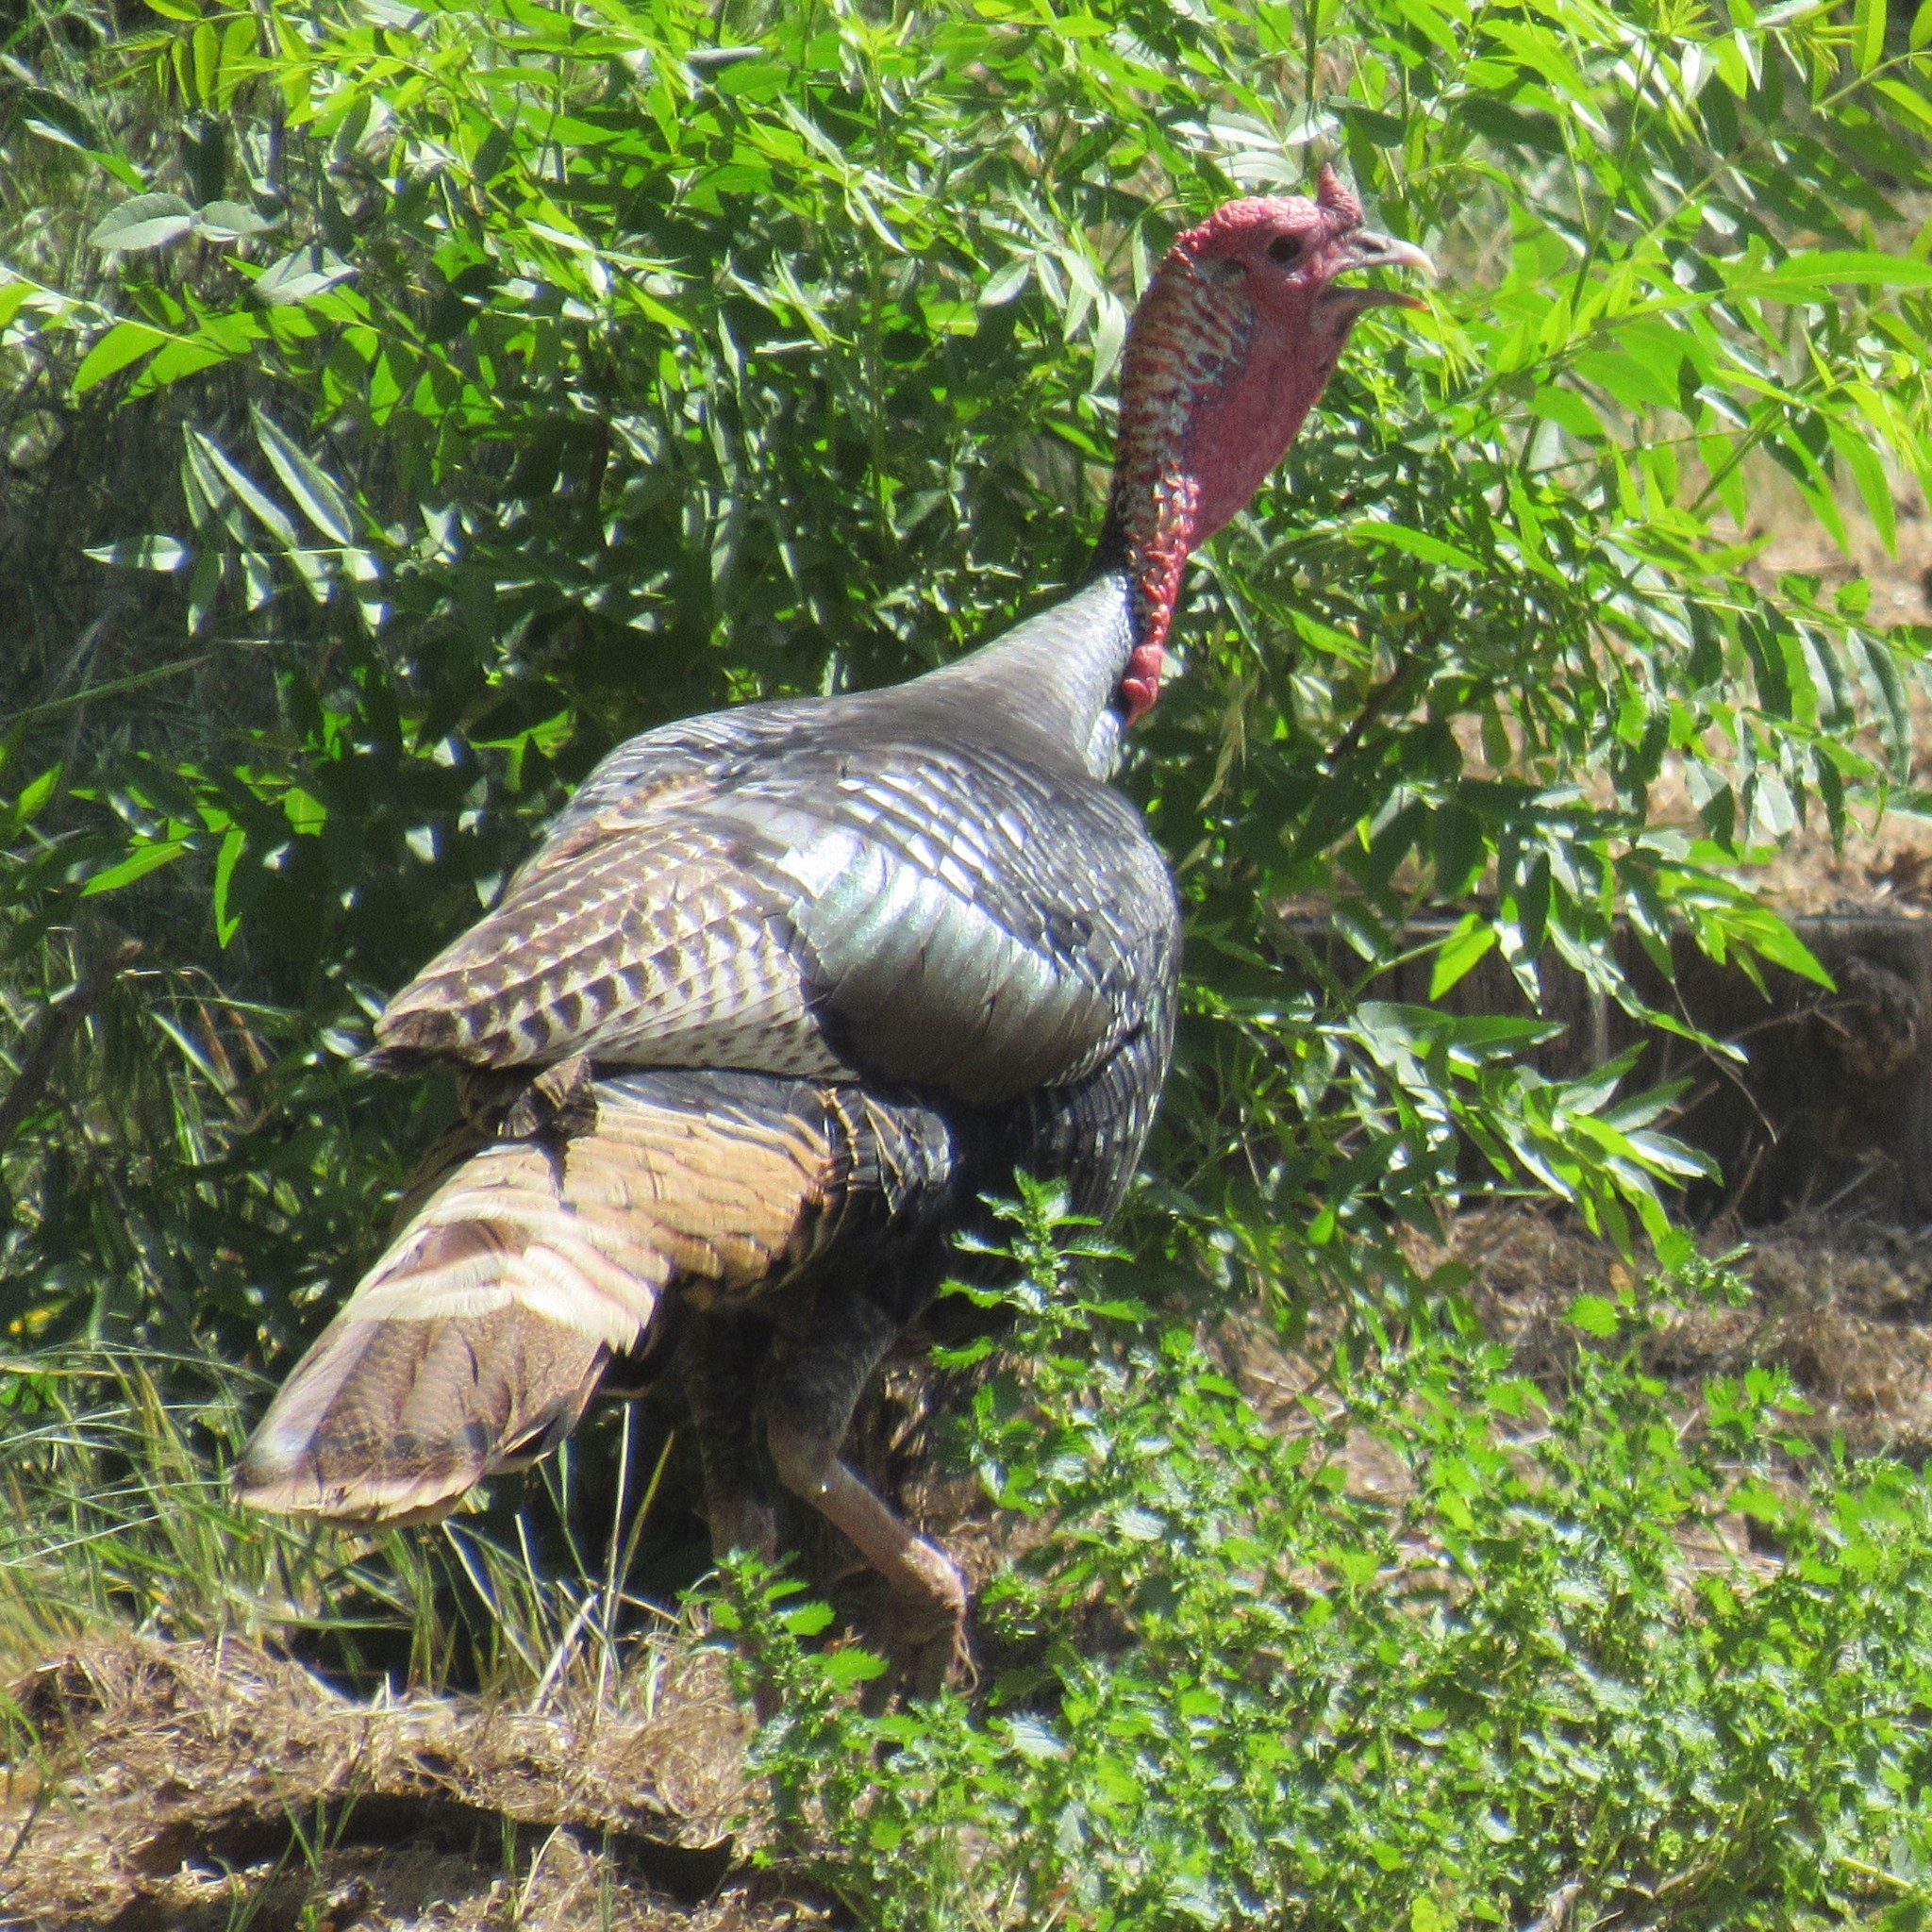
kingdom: Animalia
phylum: Chordata
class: Aves
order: Galliformes
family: Phasianidae
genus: Meleagris
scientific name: Meleagris gallopavo
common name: Wild turkey
